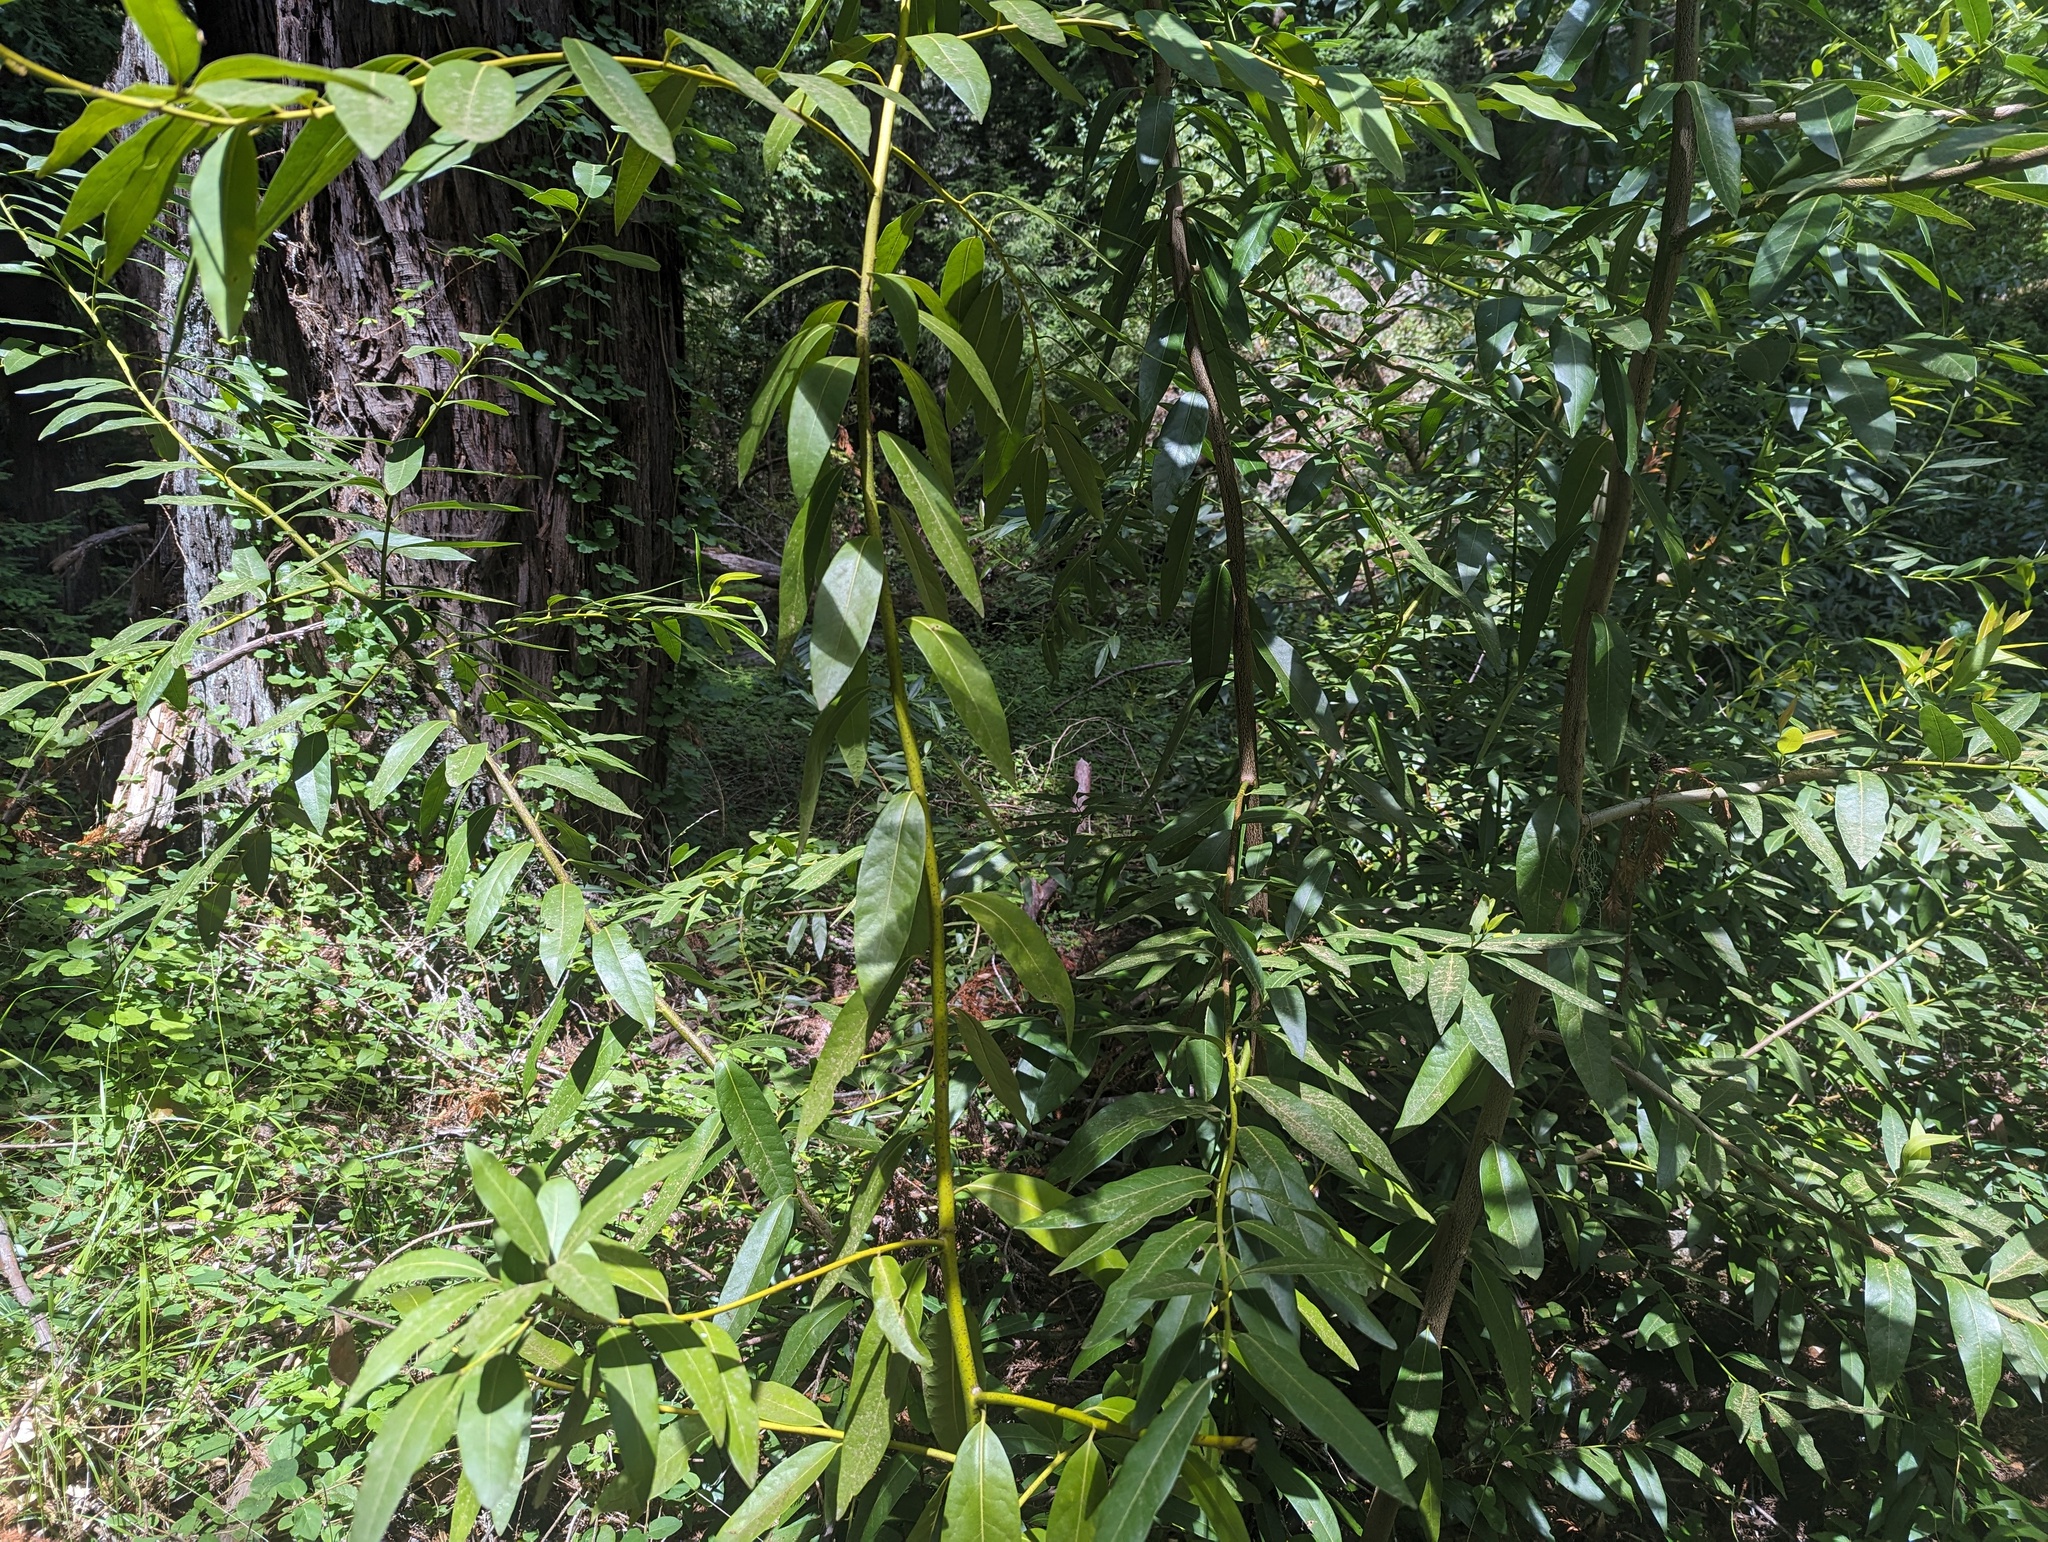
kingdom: Plantae
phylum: Tracheophyta
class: Magnoliopsida
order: Laurales
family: Lauraceae
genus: Umbellularia
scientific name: Umbellularia californica
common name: California bay
